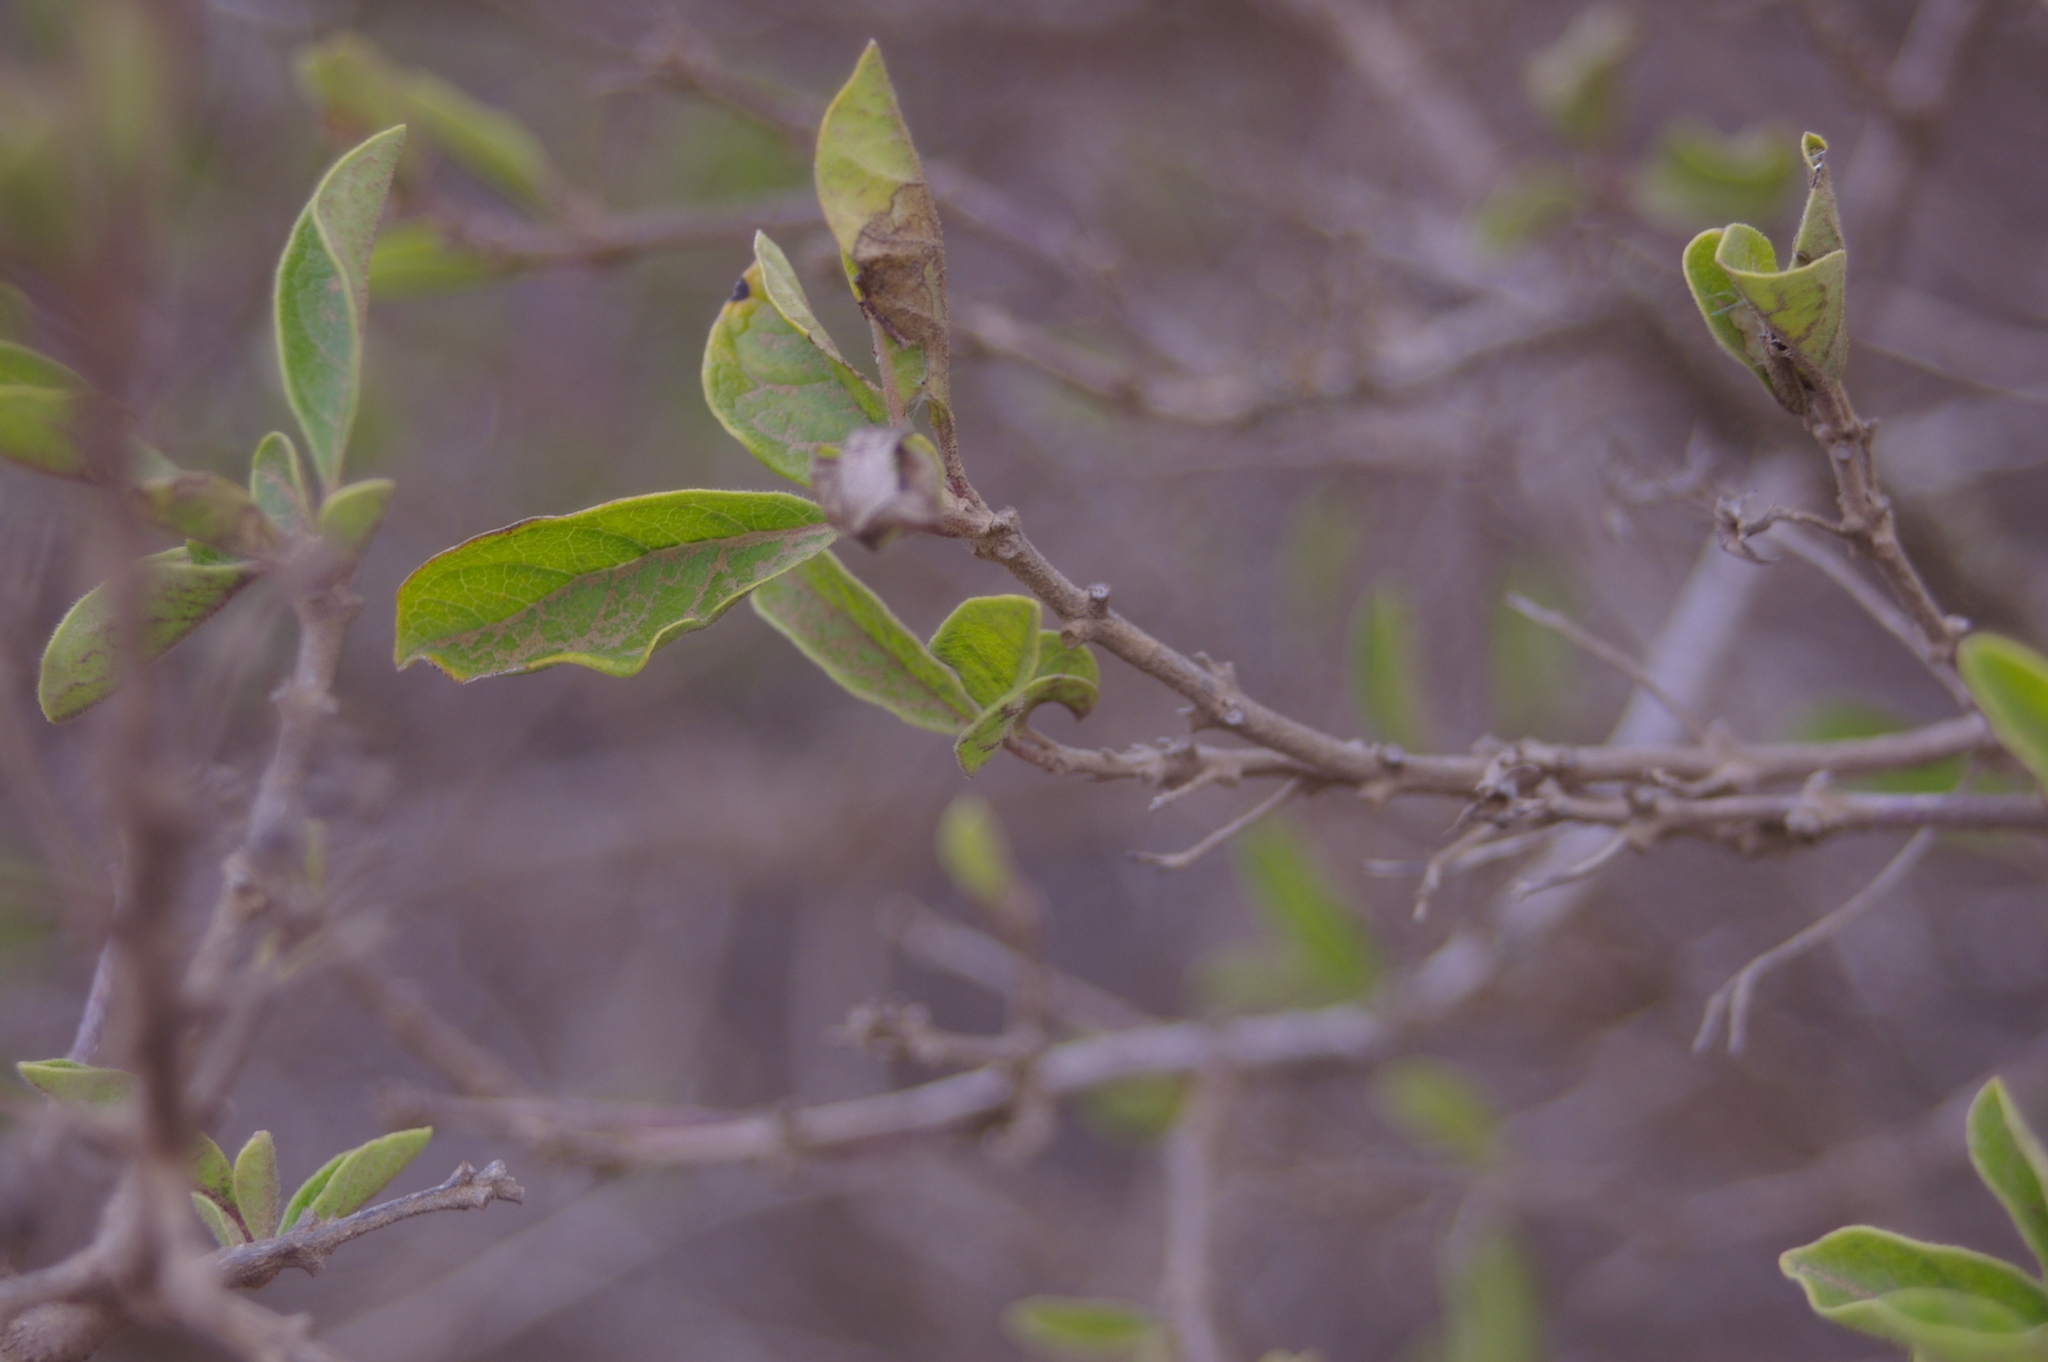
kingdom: Plantae
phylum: Tracheophyta
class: Magnoliopsida
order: Lamiales
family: Lamiaceae
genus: Volkameria
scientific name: Volkameria mollis
